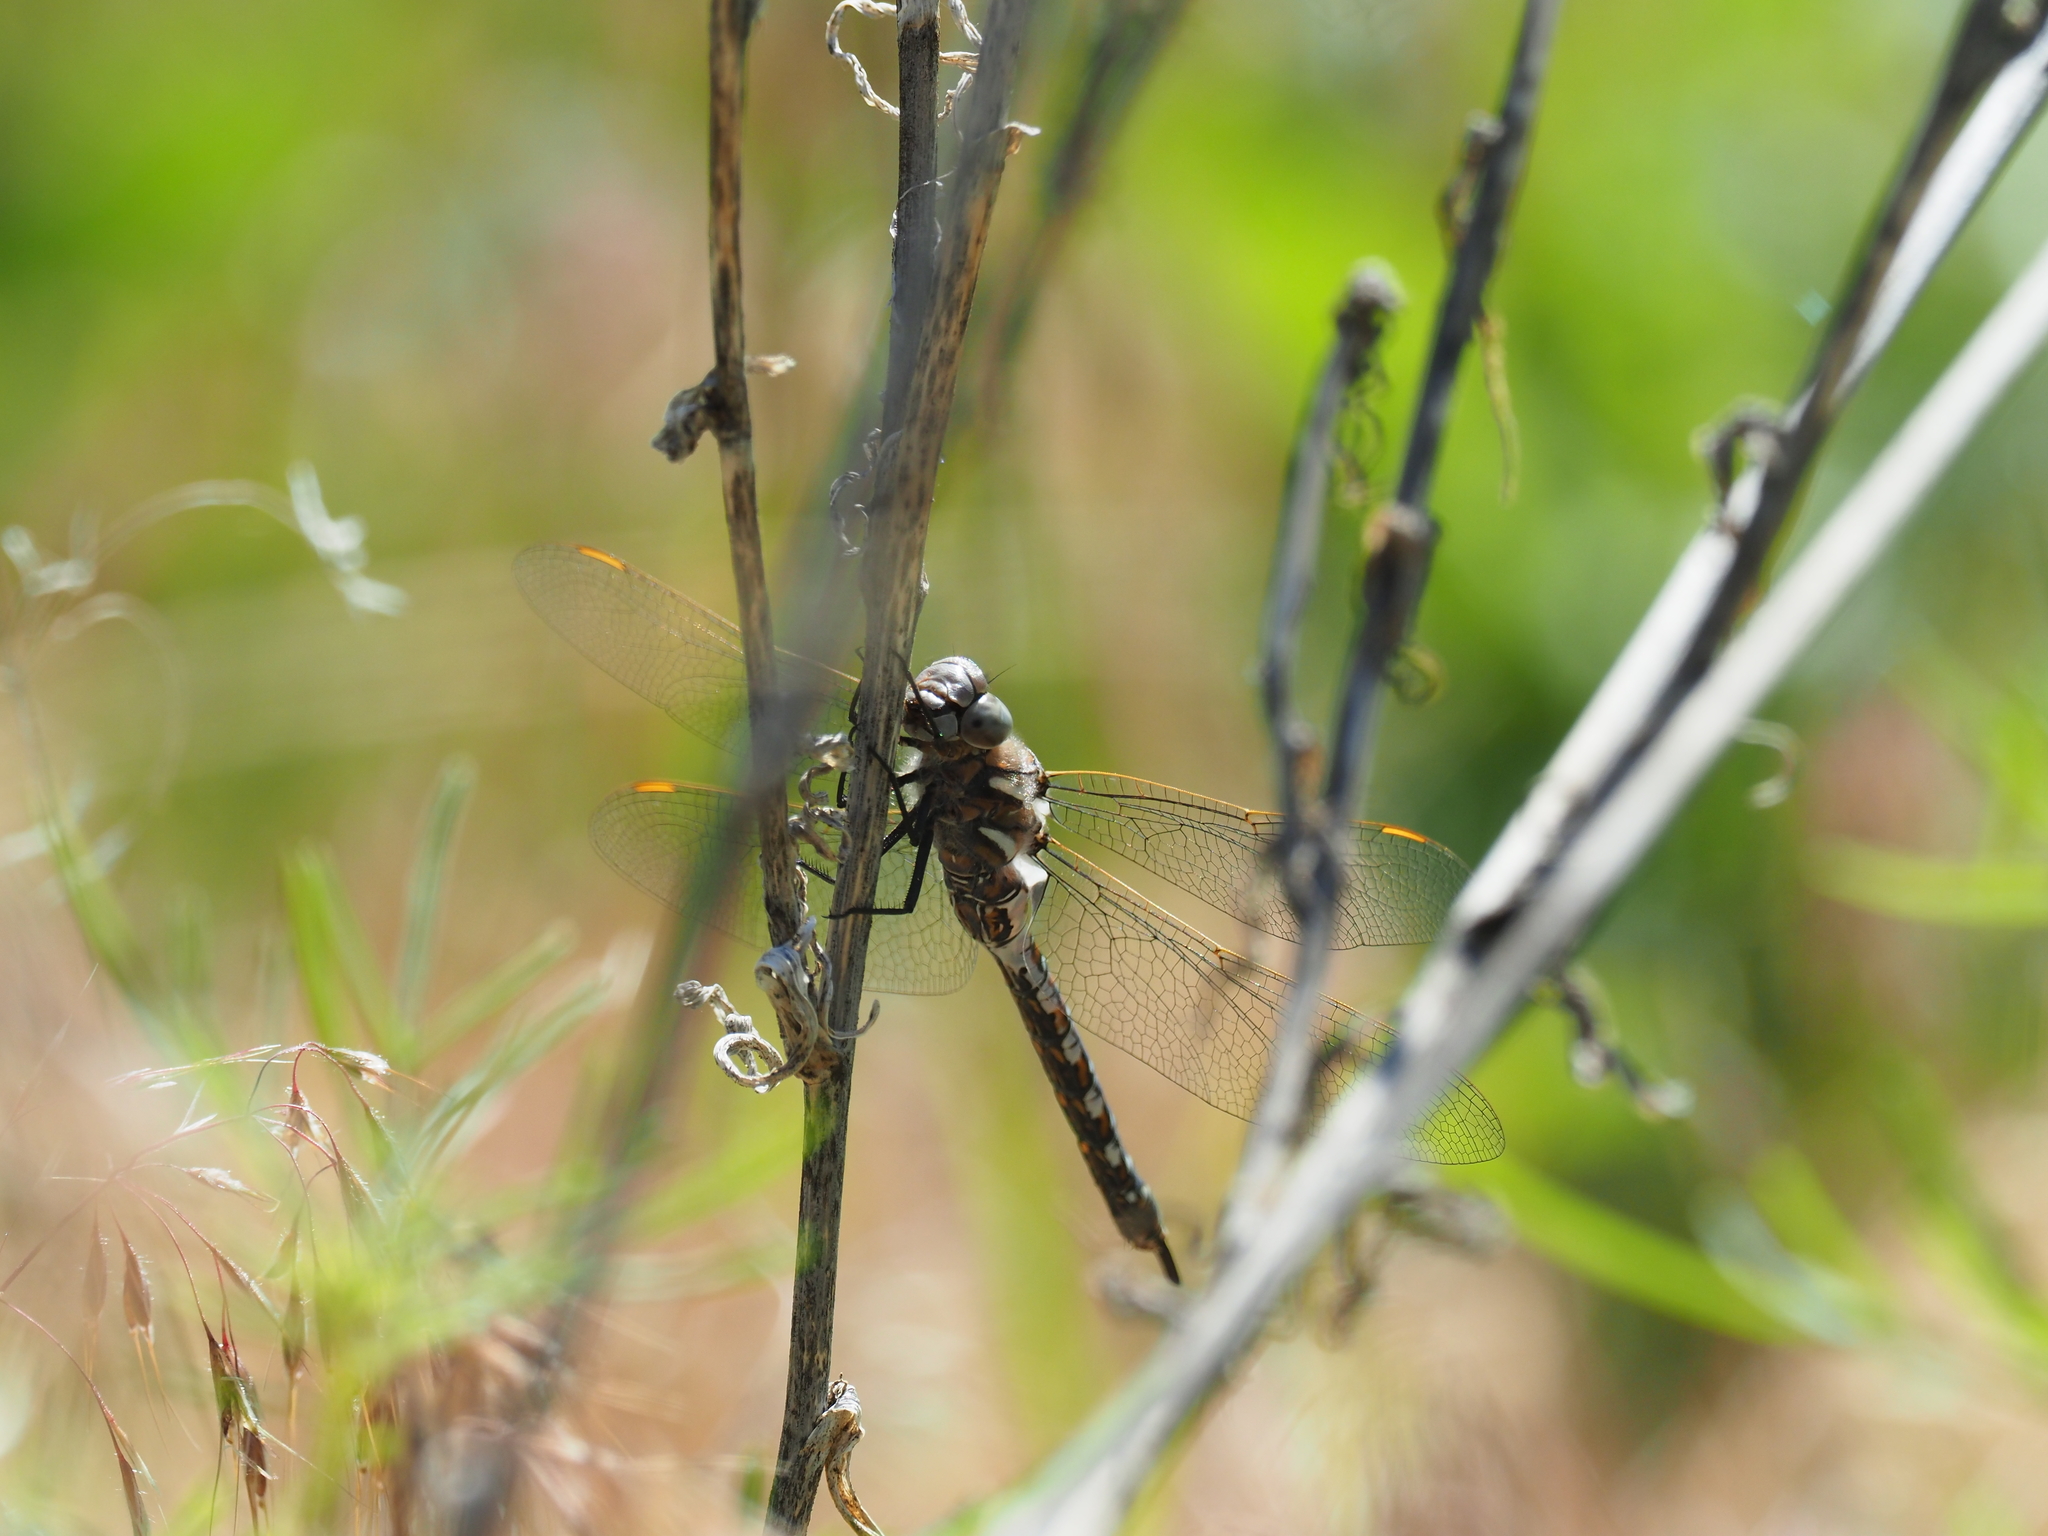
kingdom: Animalia
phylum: Arthropoda
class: Insecta
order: Odonata
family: Aeshnidae
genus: Rhionaeschna
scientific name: Rhionaeschna californica
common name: California darner
